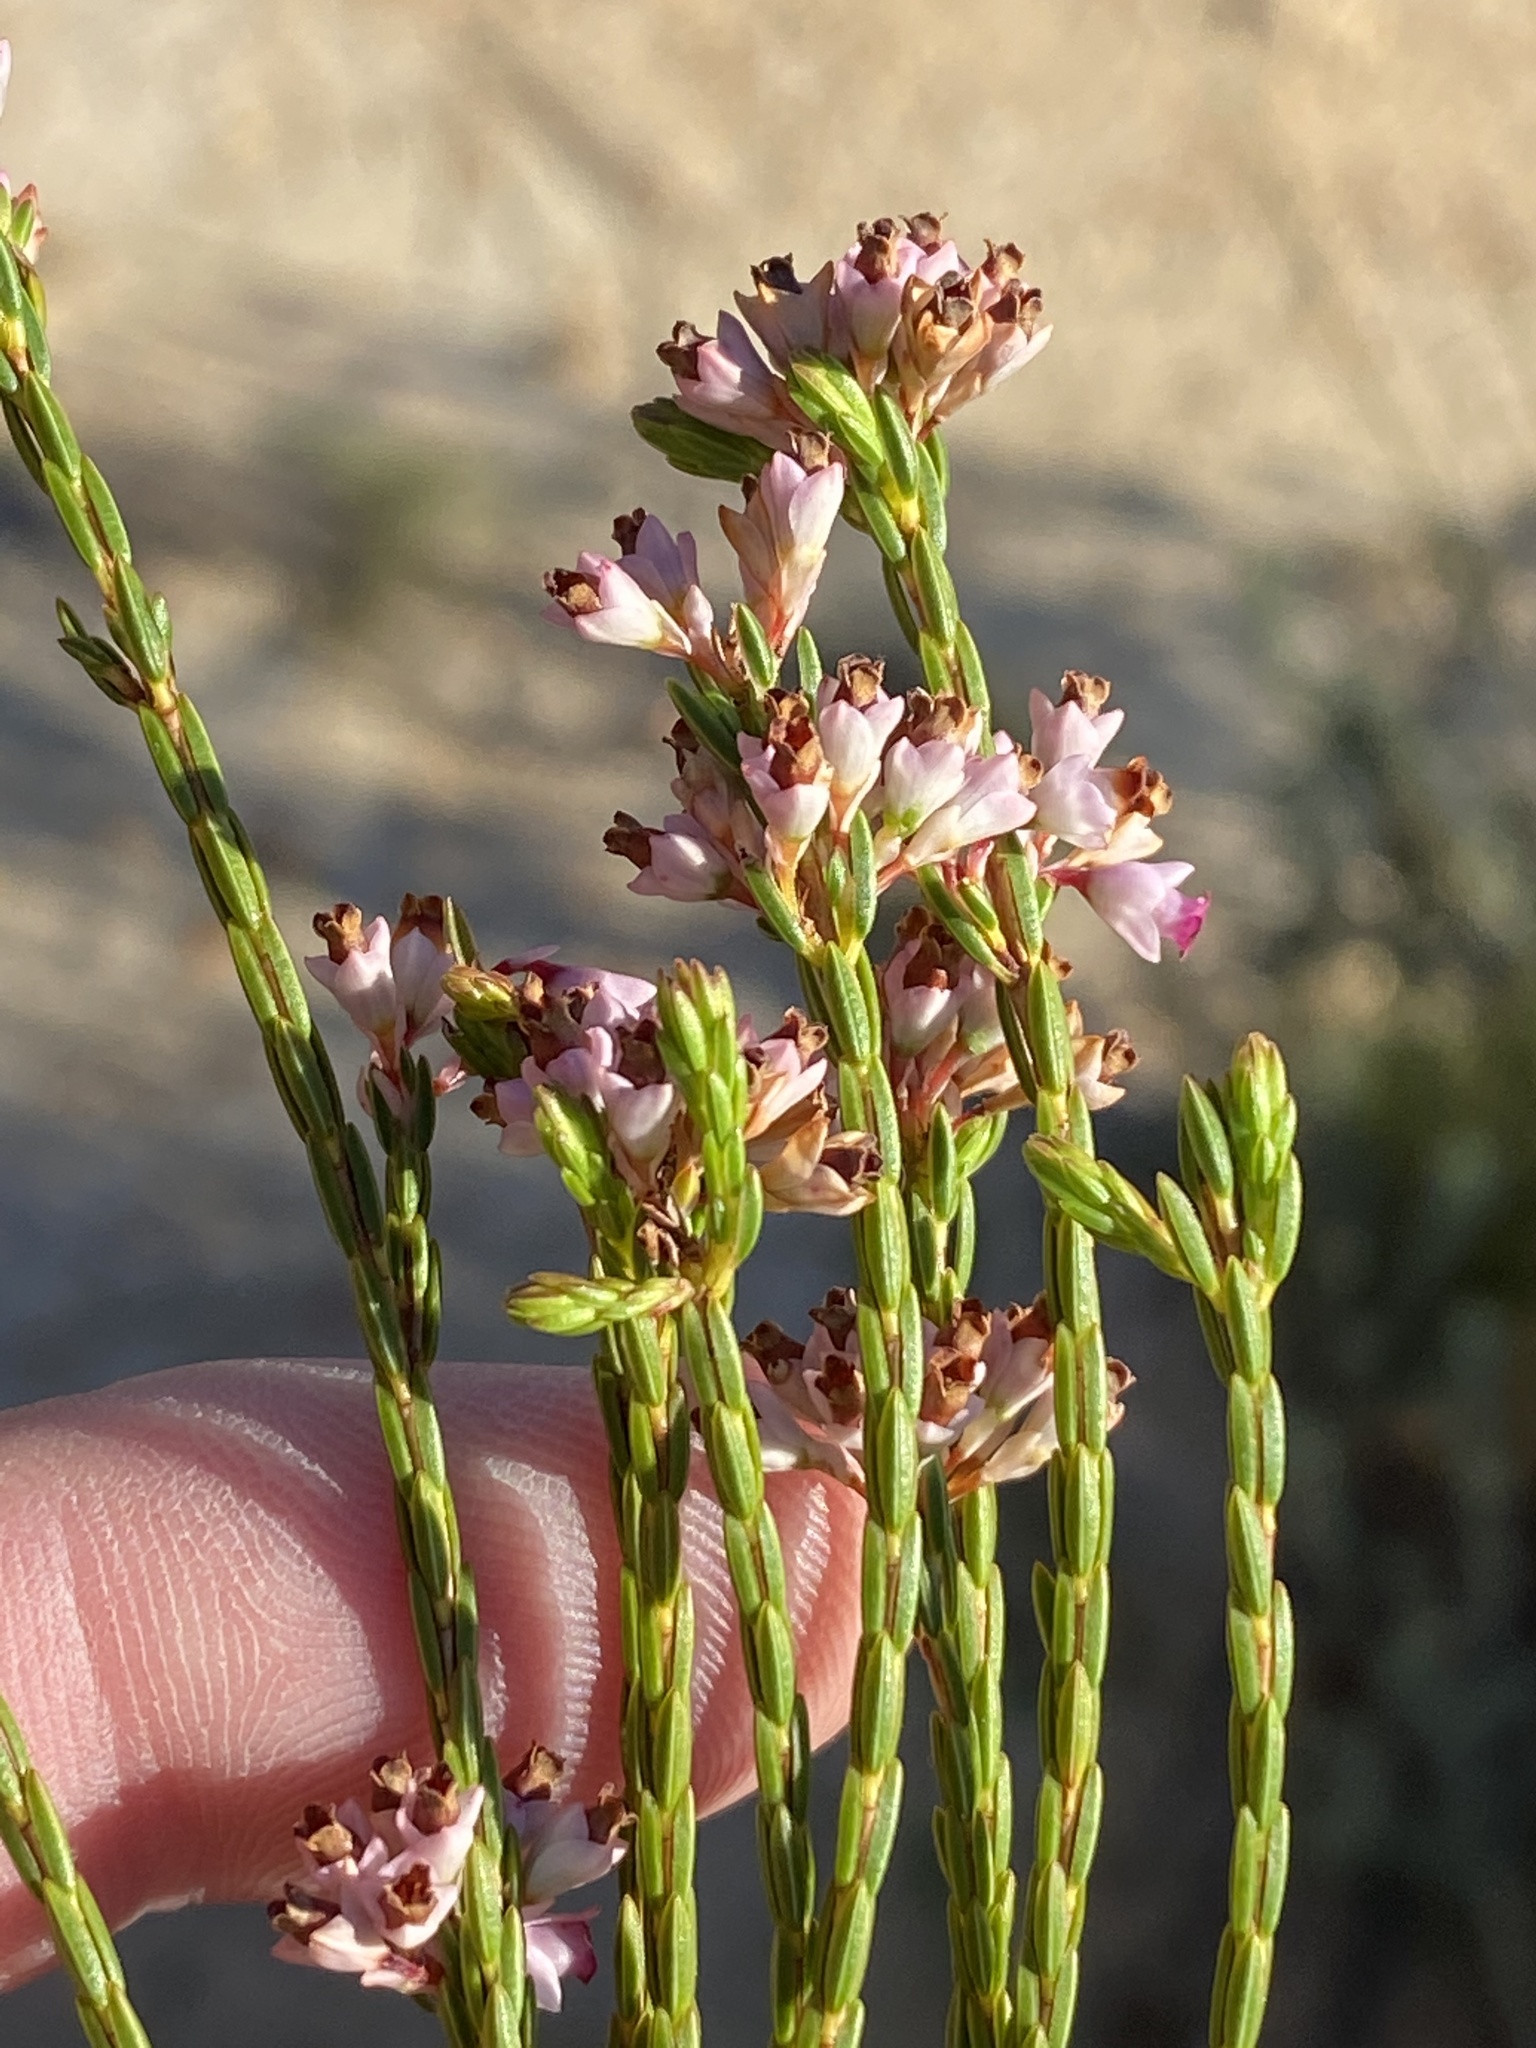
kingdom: Plantae
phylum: Tracheophyta
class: Magnoliopsida
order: Ericales
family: Ericaceae
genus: Erica
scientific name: Erica corifolia
